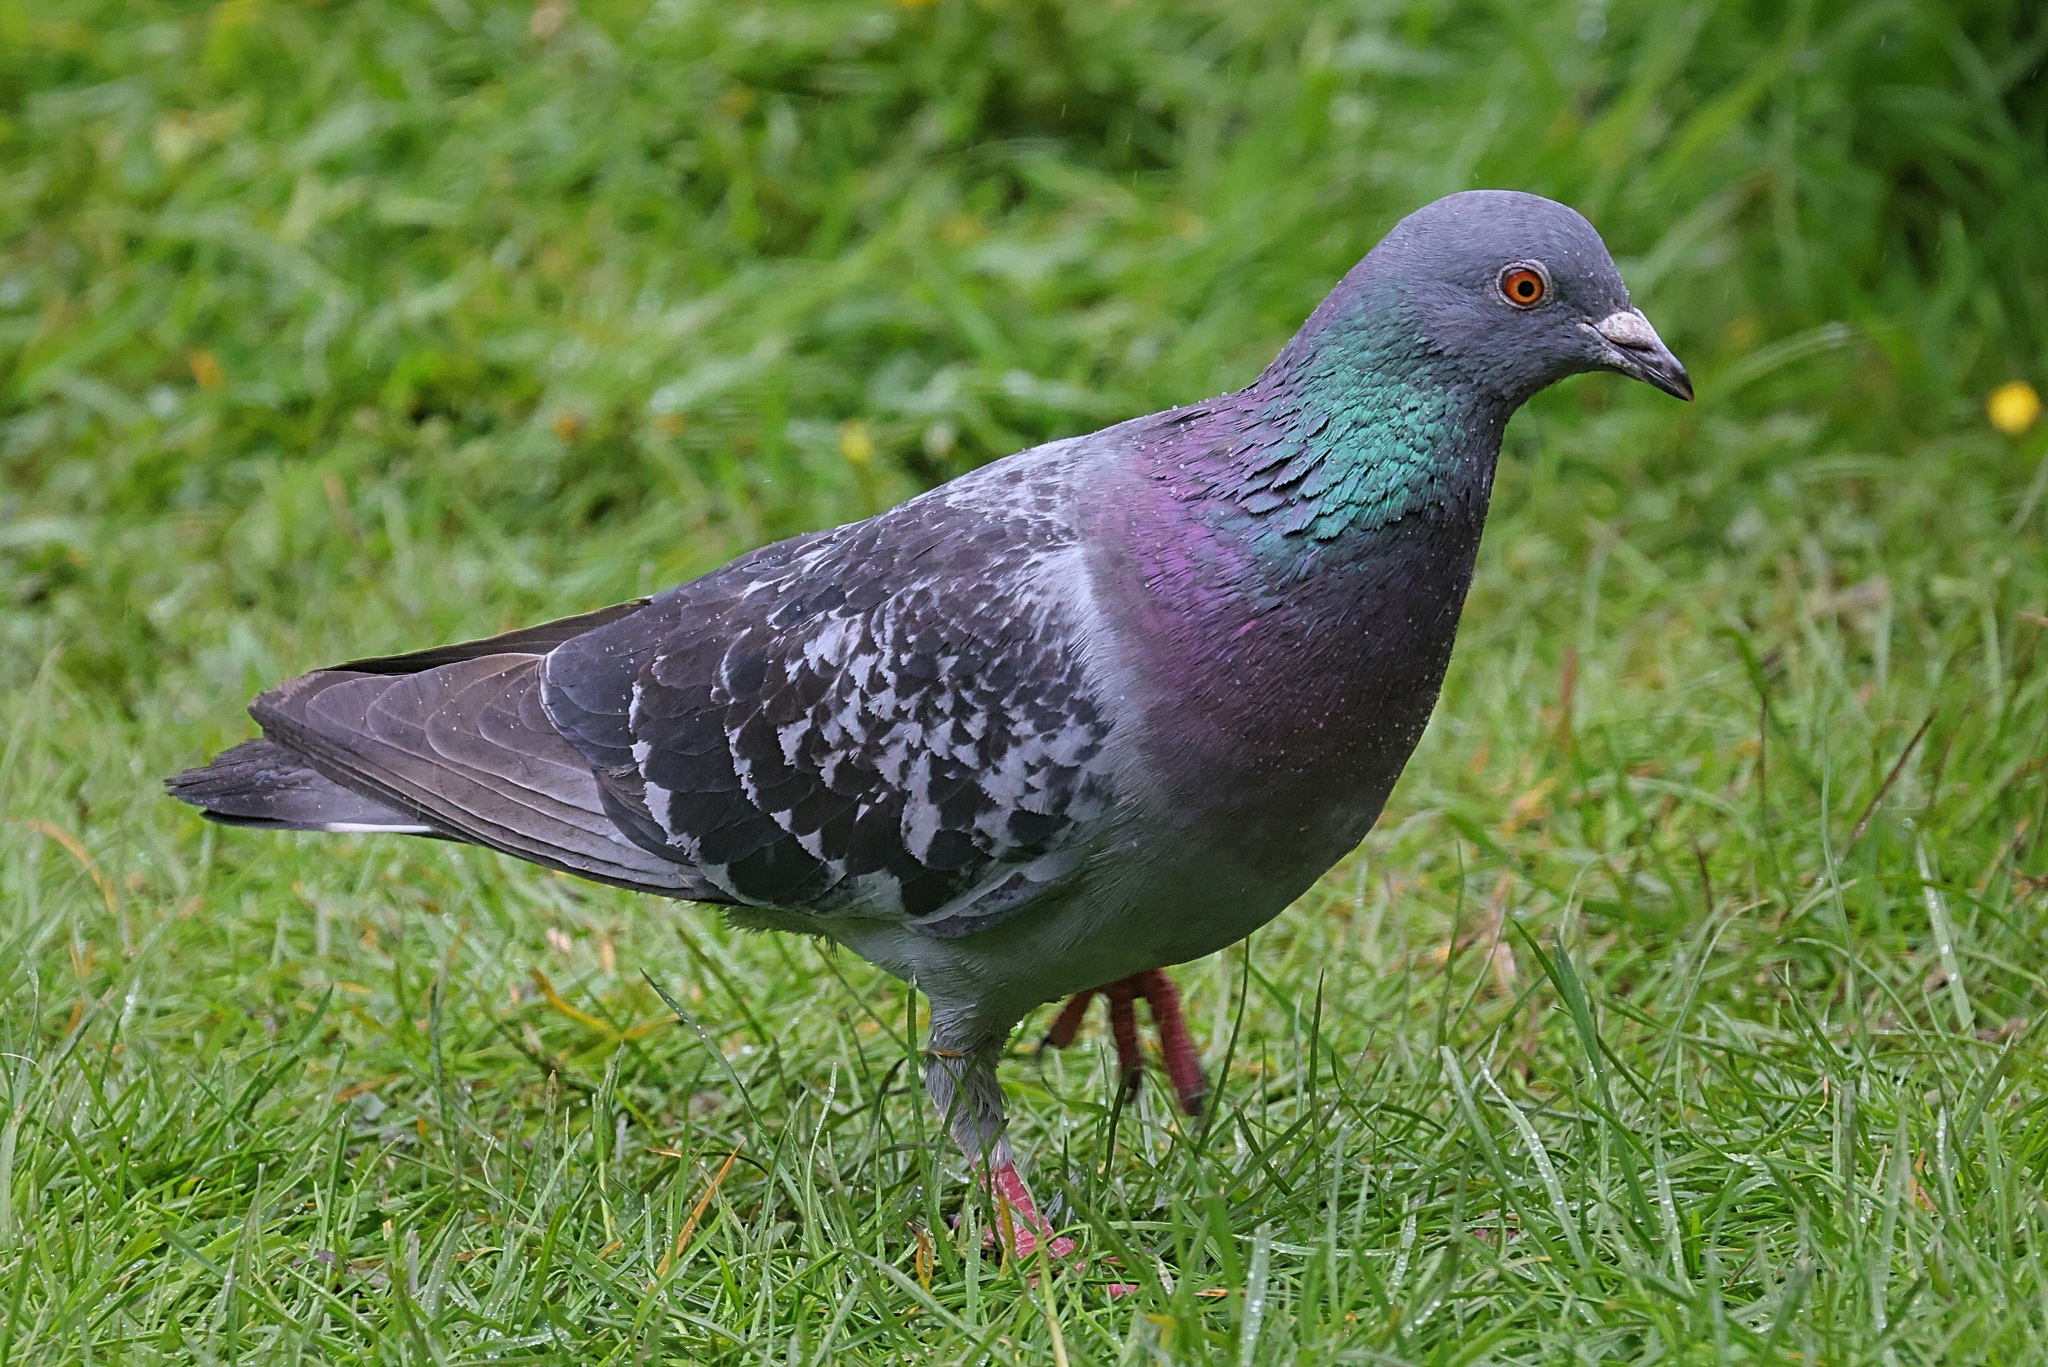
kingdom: Animalia
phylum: Chordata
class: Aves
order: Columbiformes
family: Columbidae
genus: Columba
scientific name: Columba livia
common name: Rock pigeon
